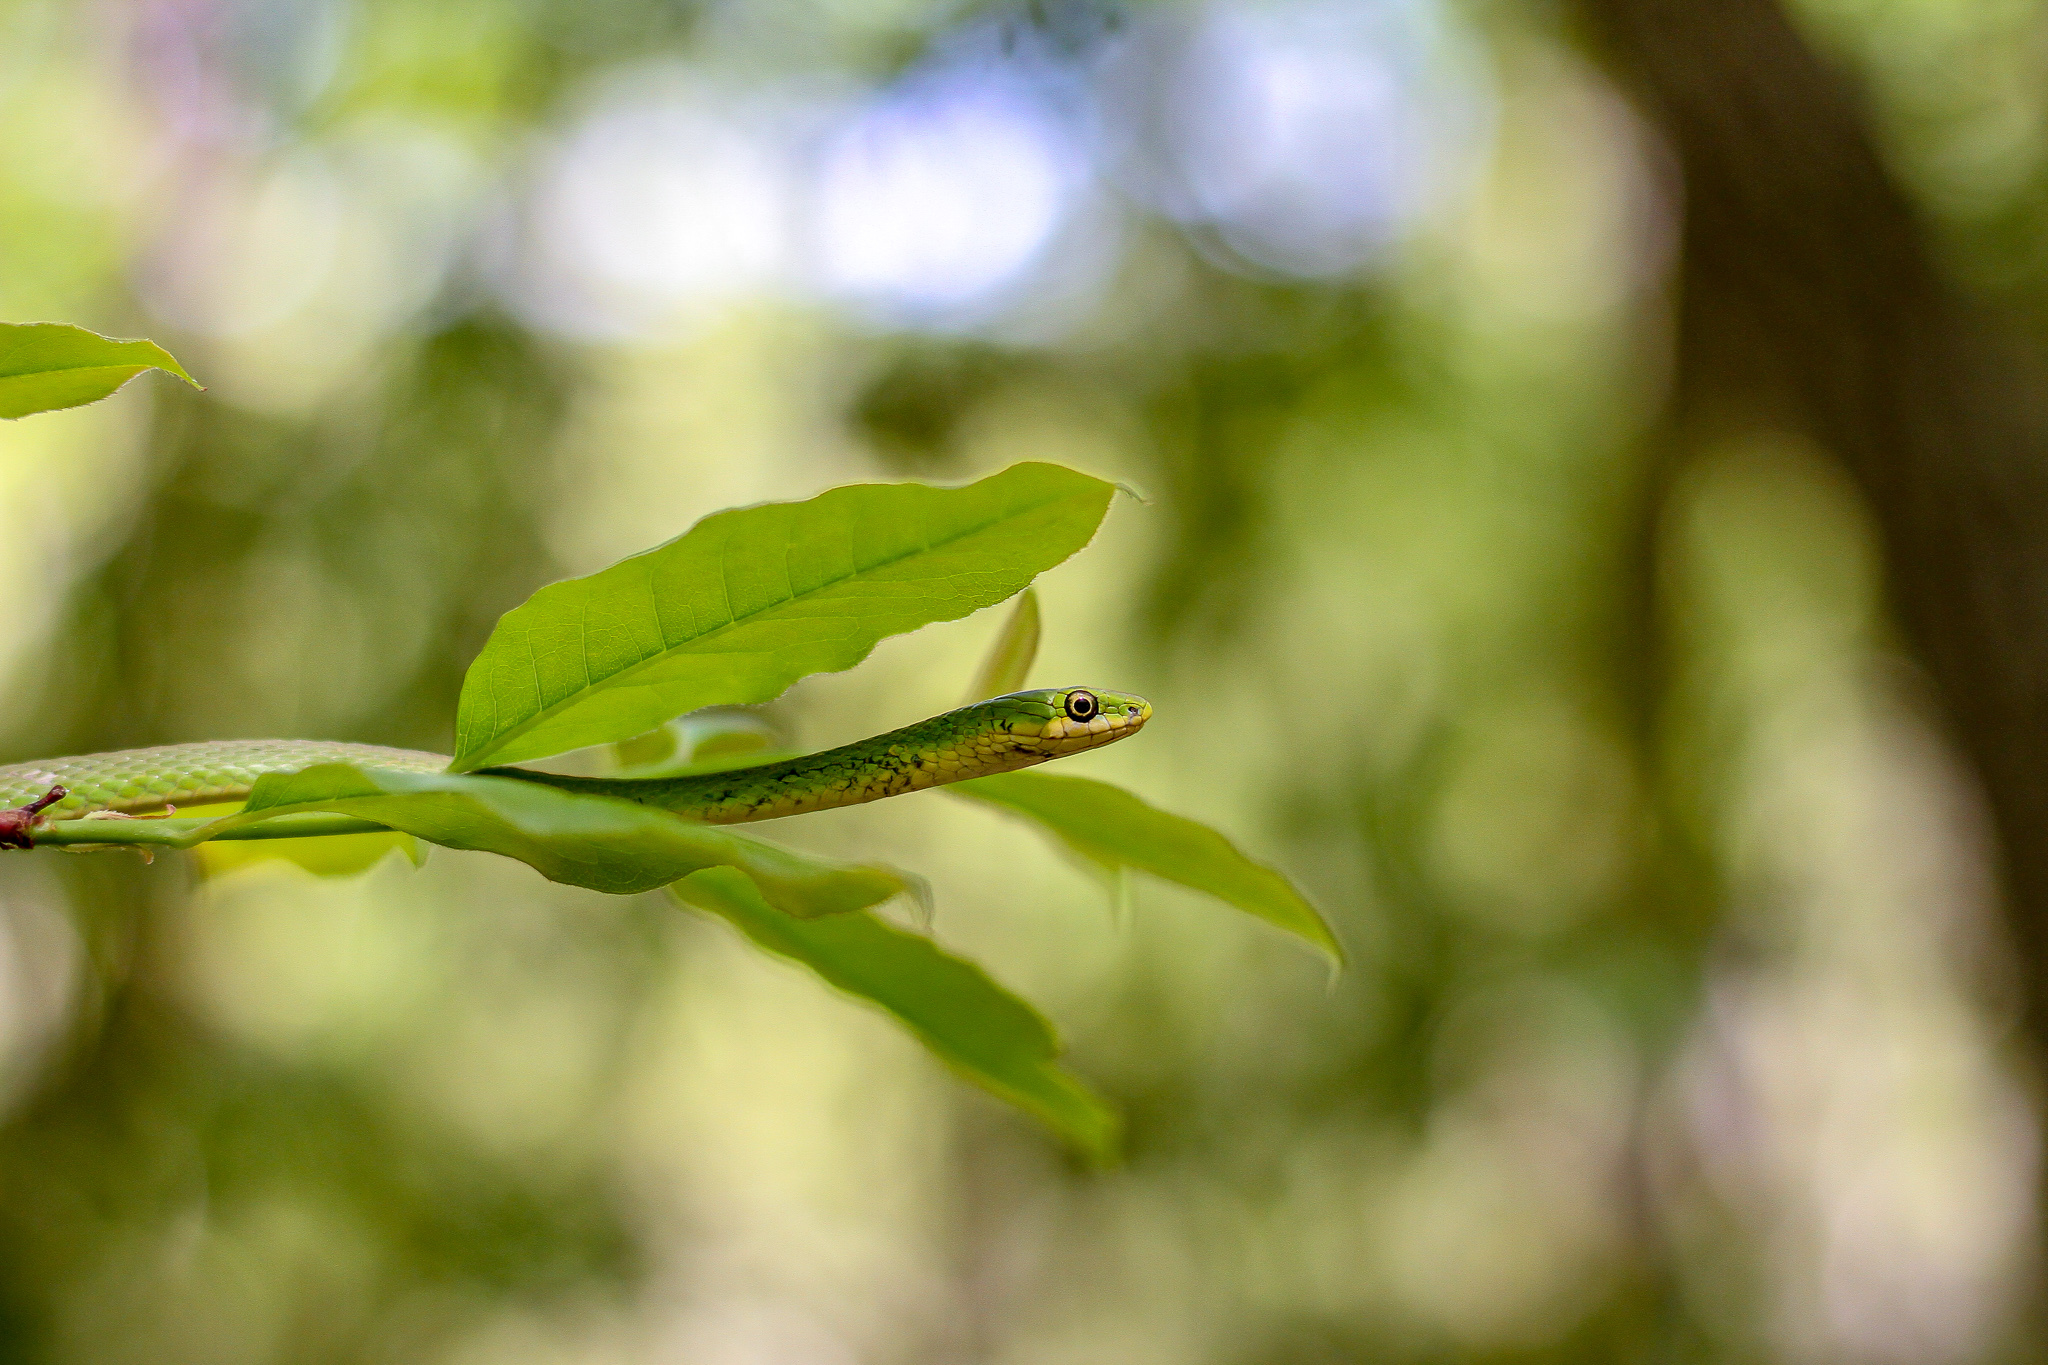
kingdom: Animalia
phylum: Chordata
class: Squamata
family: Colubridae
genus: Opheodrys
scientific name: Opheodrys aestivus
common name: Rough greensnake
